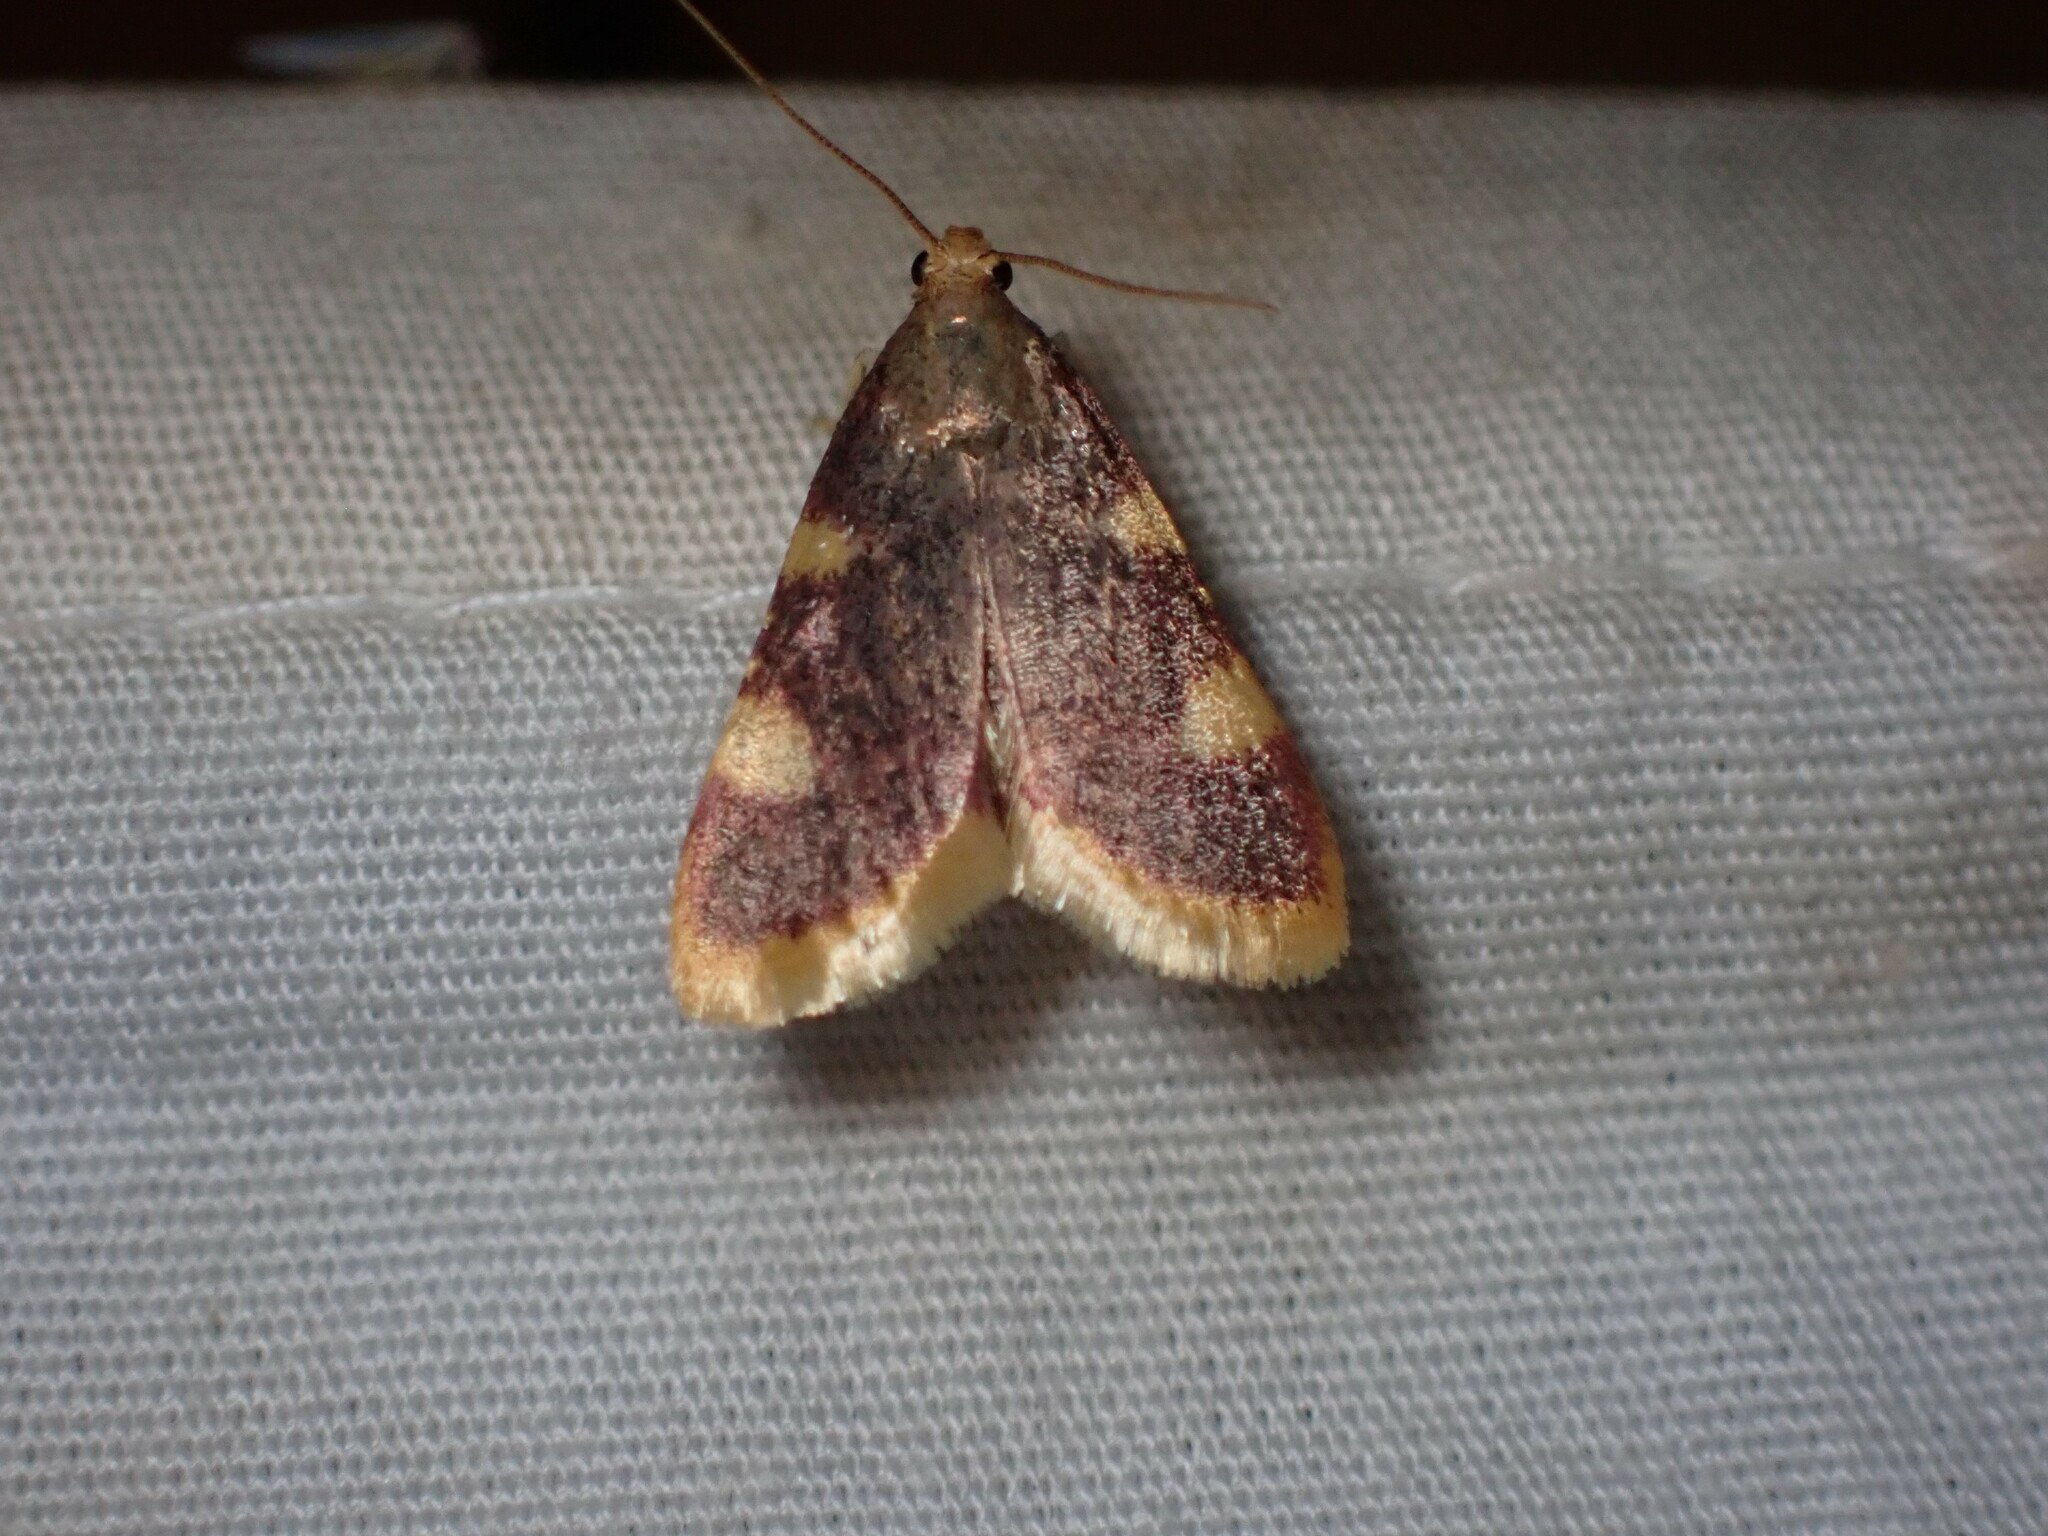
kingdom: Animalia
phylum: Arthropoda
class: Insecta
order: Lepidoptera
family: Pyralidae
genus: Hypsopygia
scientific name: Hypsopygia costalis
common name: Gold triangle
